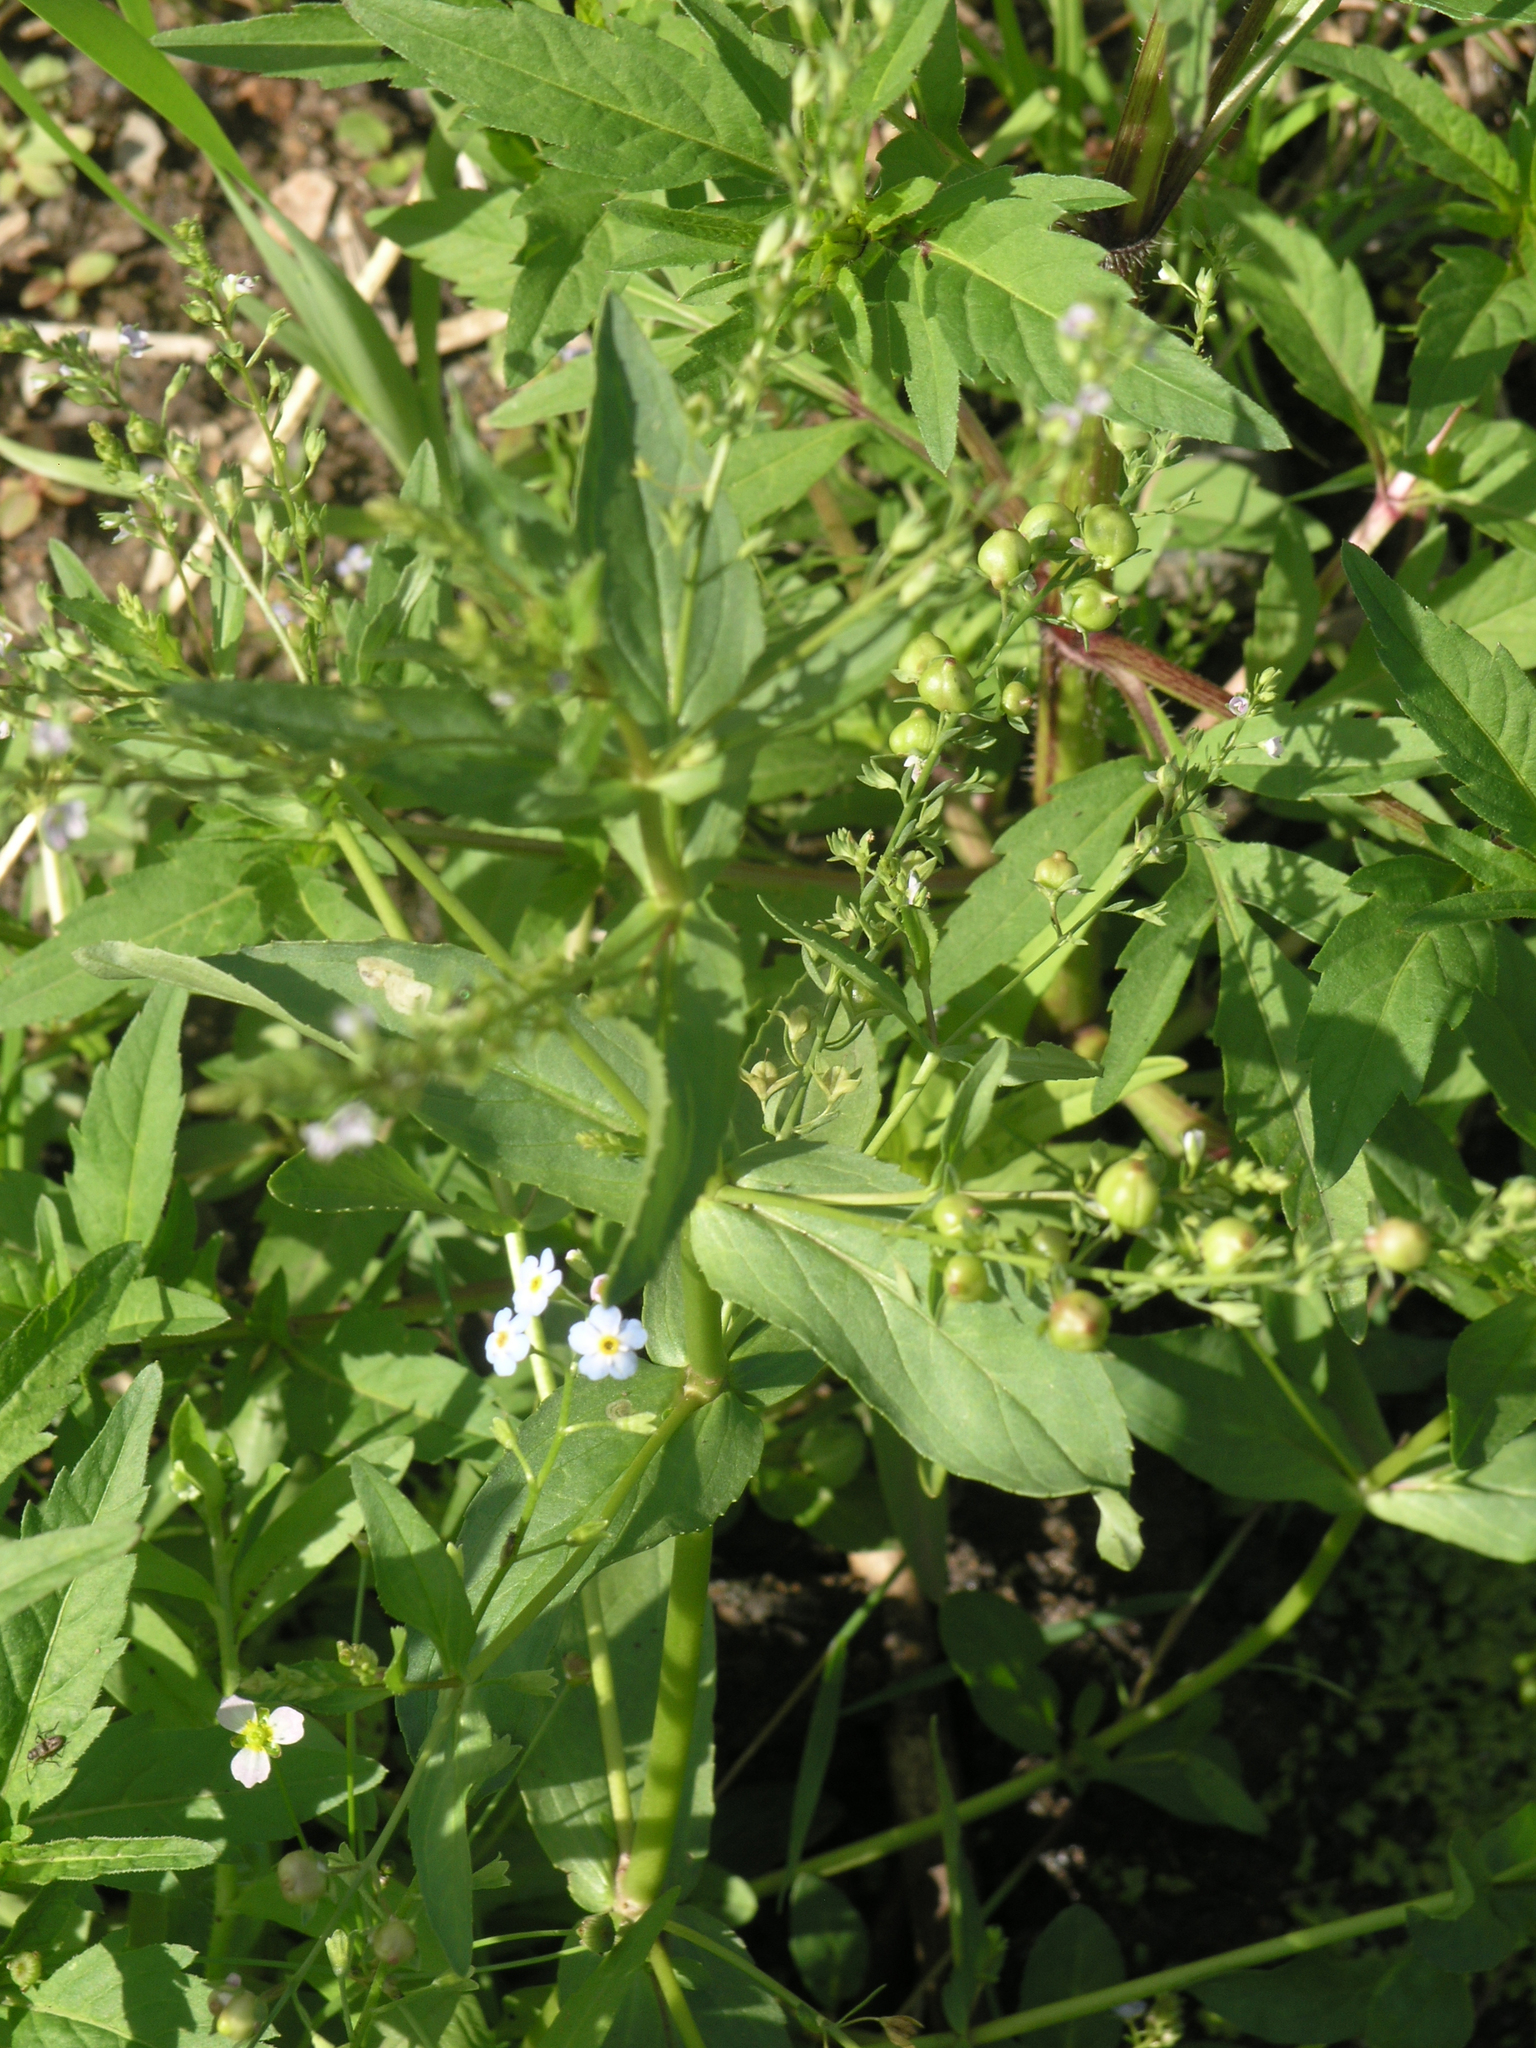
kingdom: Plantae
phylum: Tracheophyta
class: Magnoliopsida
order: Boraginales
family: Boraginaceae
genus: Myosotis
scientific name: Myosotis scorpioides
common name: Water forget-me-not
